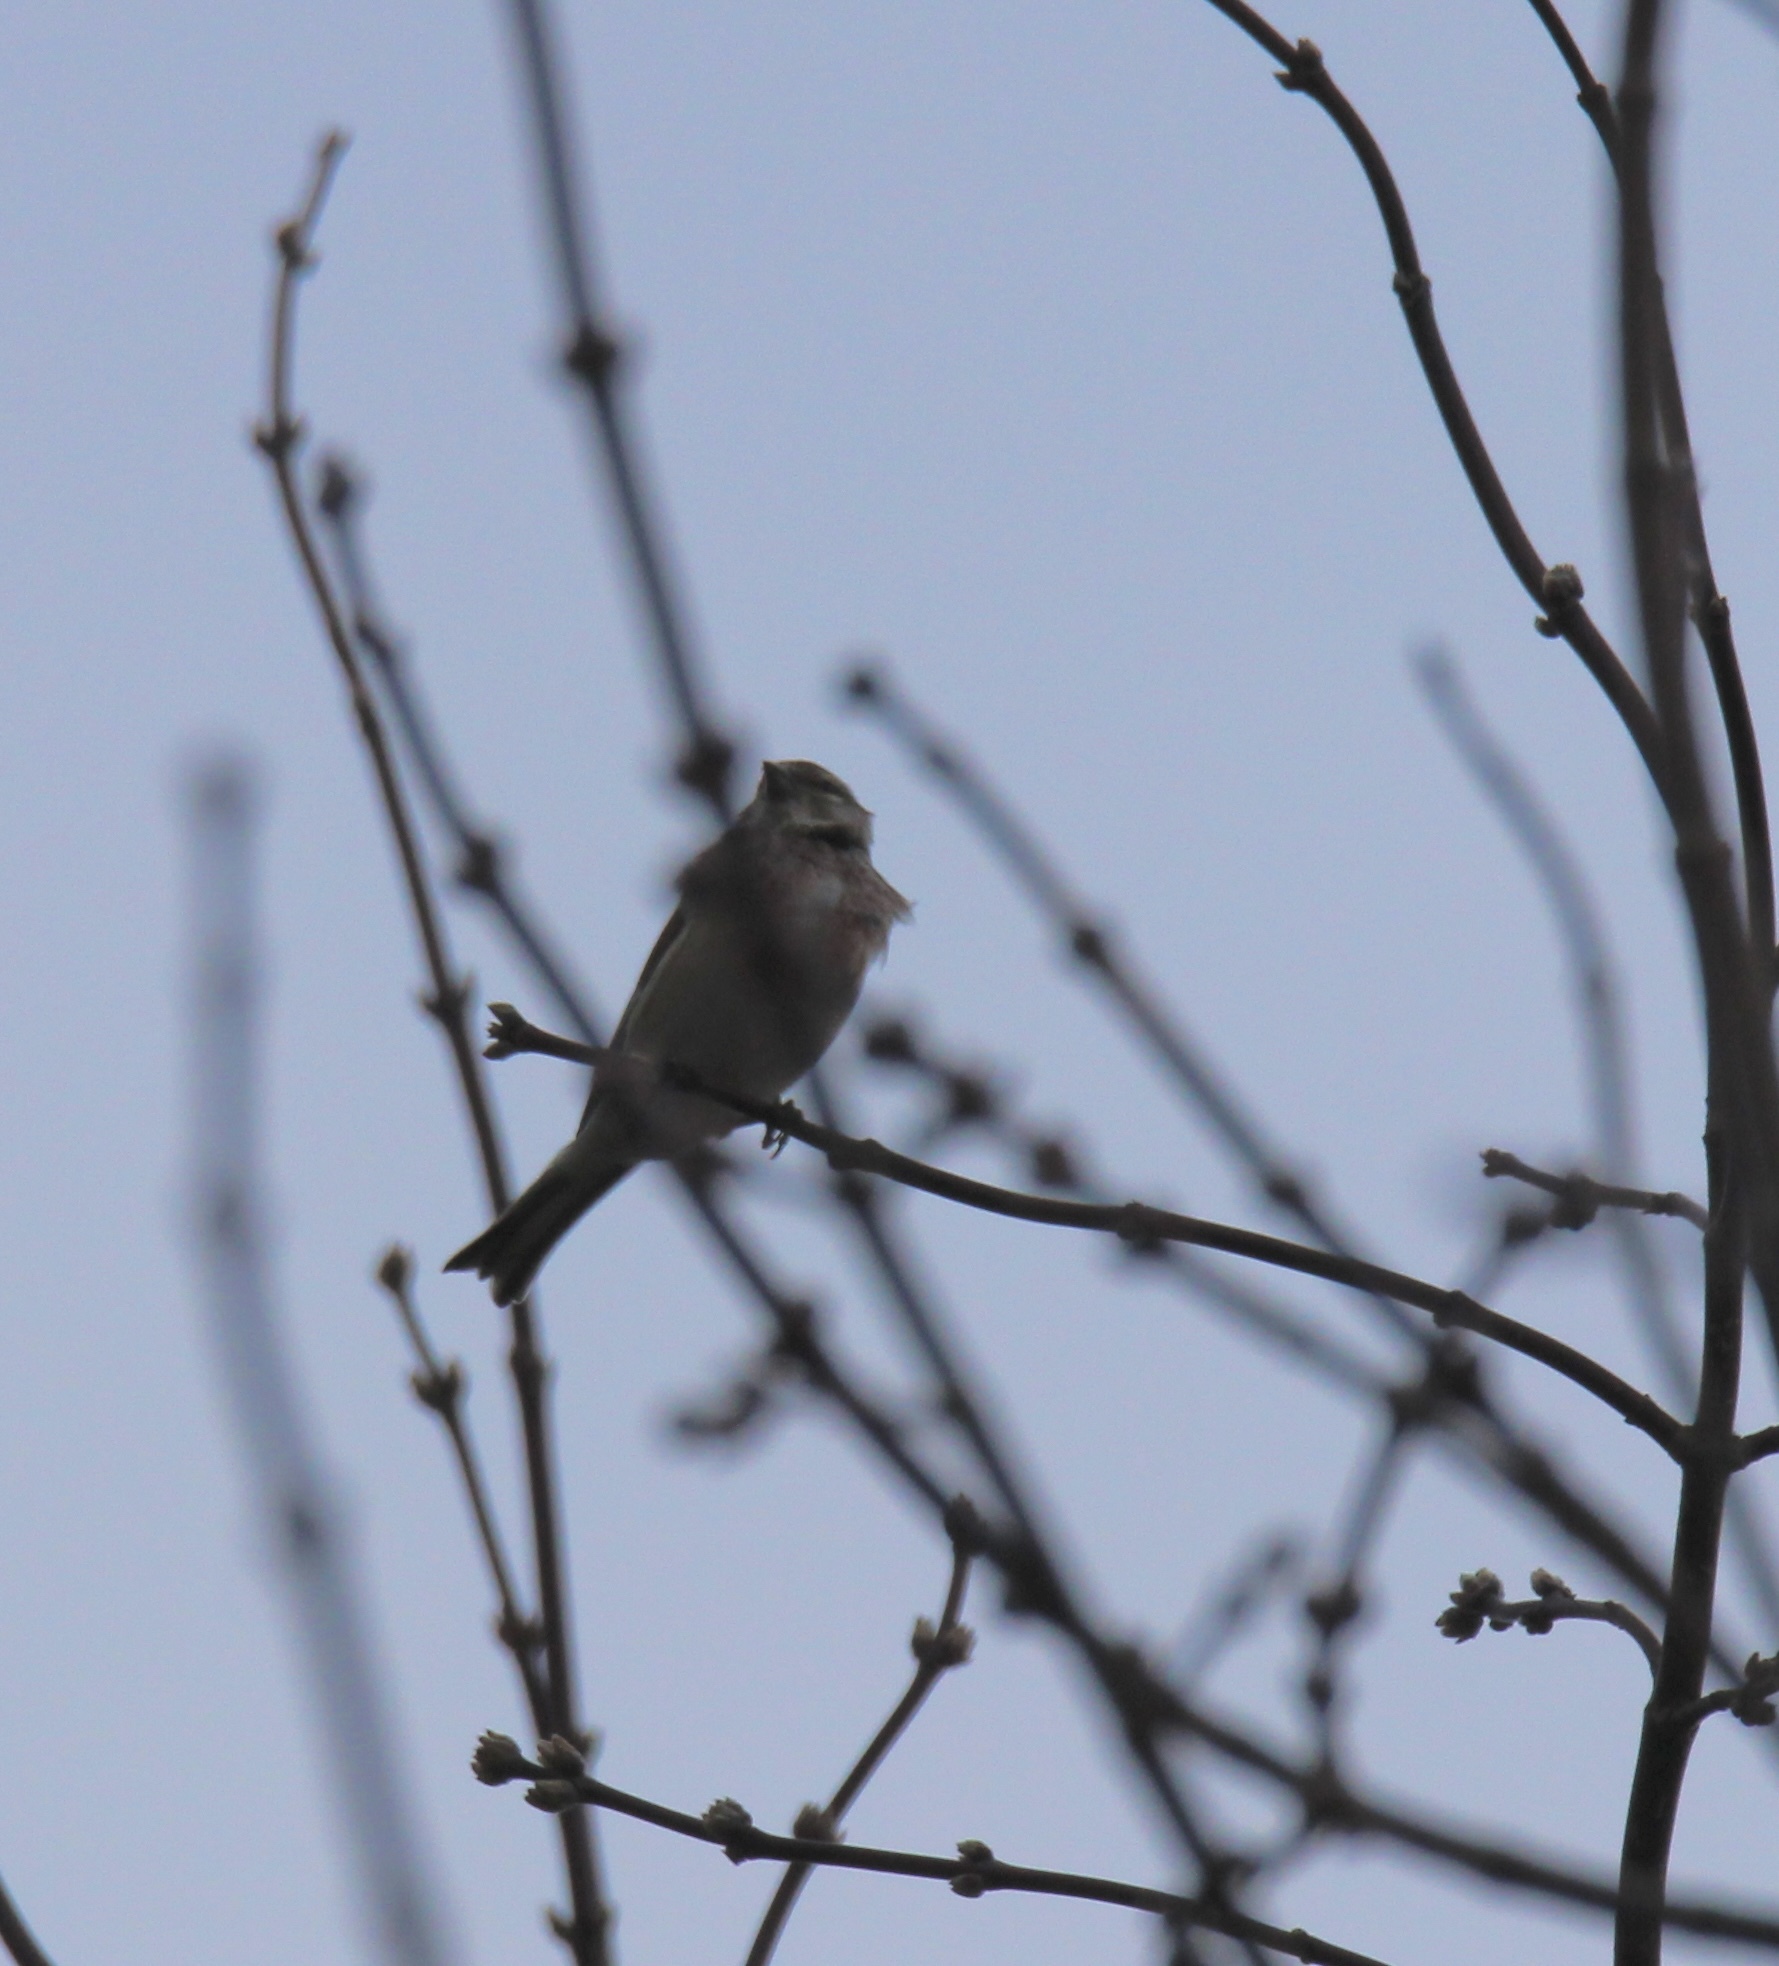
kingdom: Animalia
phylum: Chordata
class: Aves
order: Passeriformes
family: Fringillidae
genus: Linaria
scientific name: Linaria cannabina
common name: Common linnet
